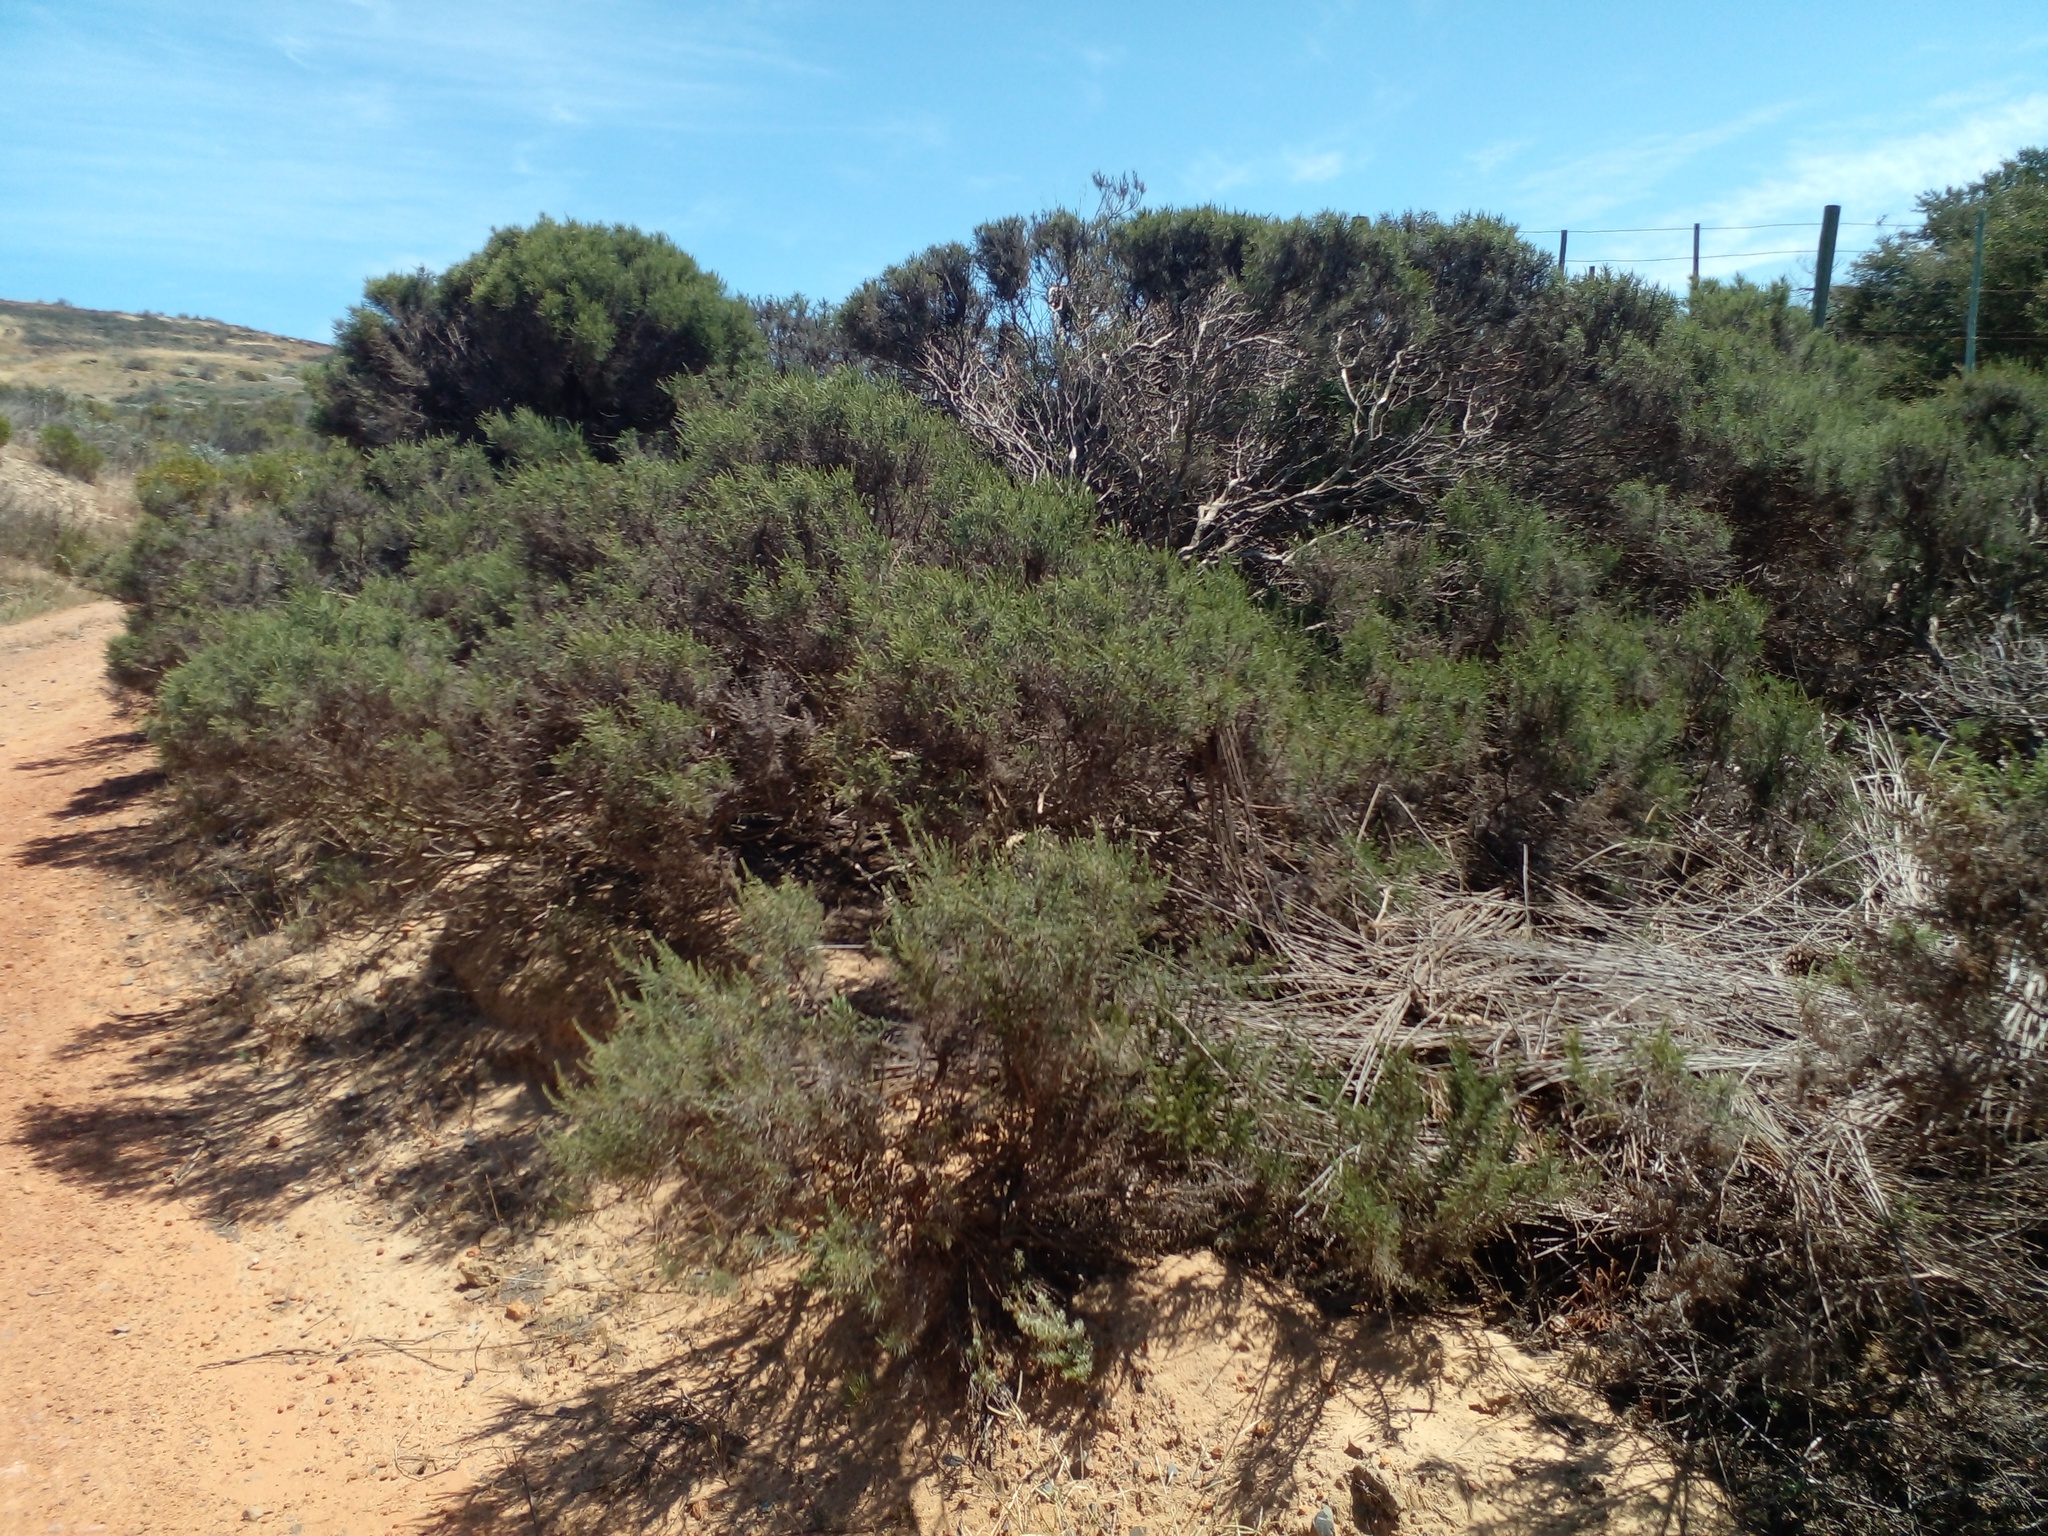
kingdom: Plantae
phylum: Tracheophyta
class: Magnoliopsida
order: Asterales
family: Asteraceae
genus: Dicerothamnus
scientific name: Dicerothamnus rhinocerotis
